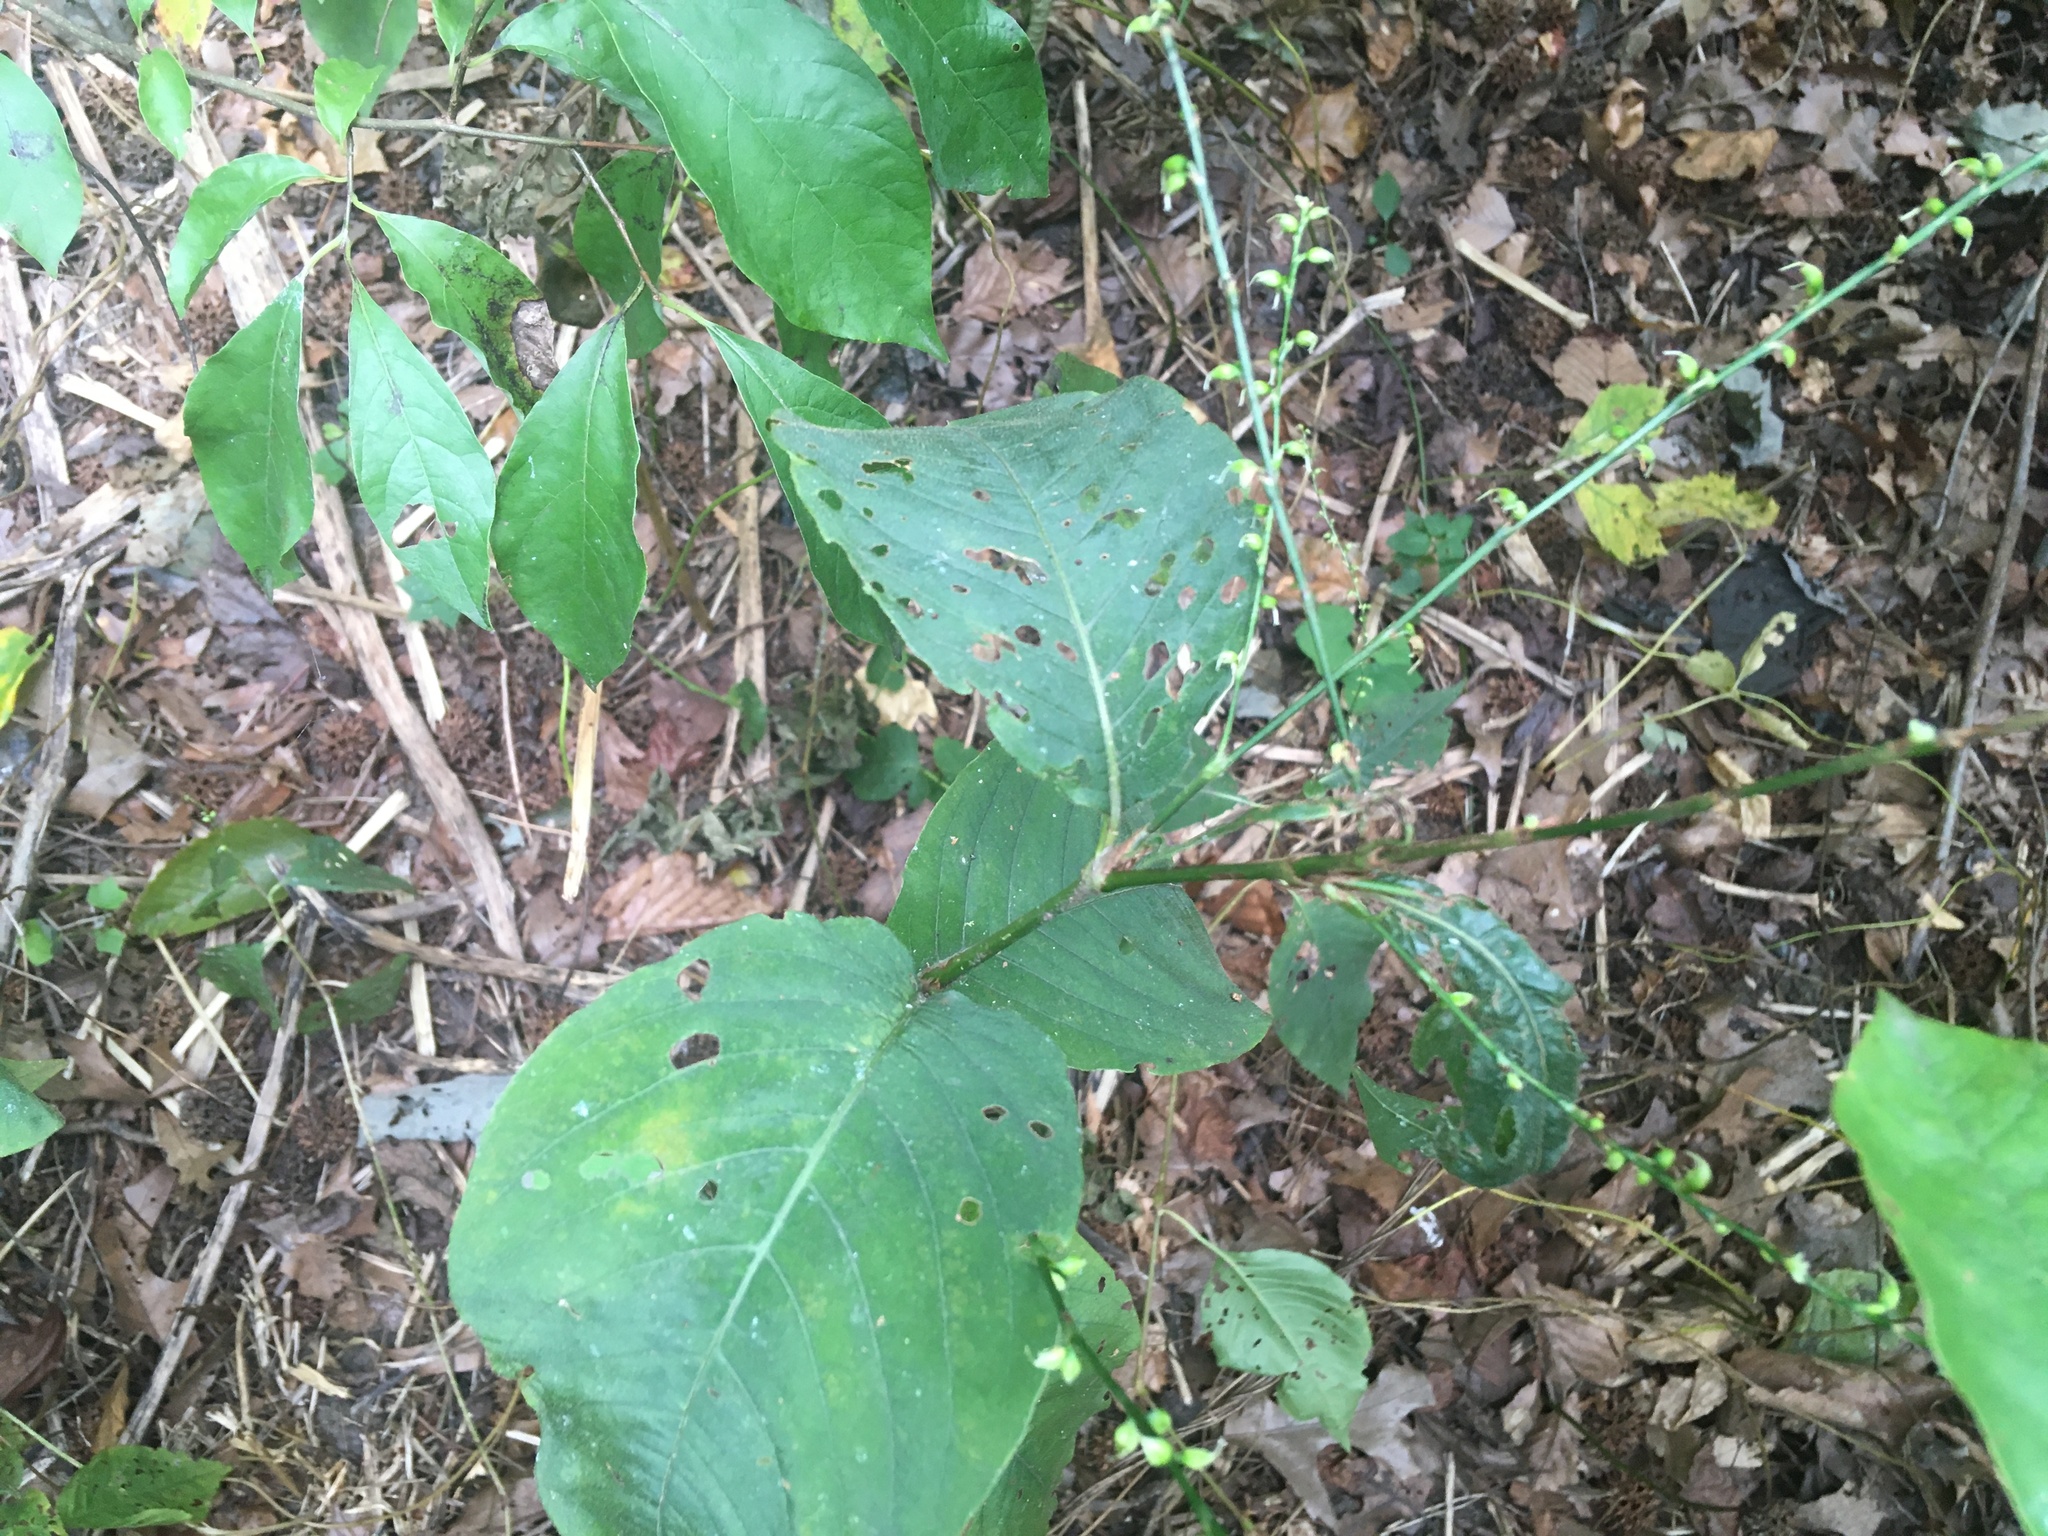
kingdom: Plantae
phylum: Tracheophyta
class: Magnoliopsida
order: Caryophyllales
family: Polygonaceae
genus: Persicaria
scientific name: Persicaria virginiana
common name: Jumpseed
